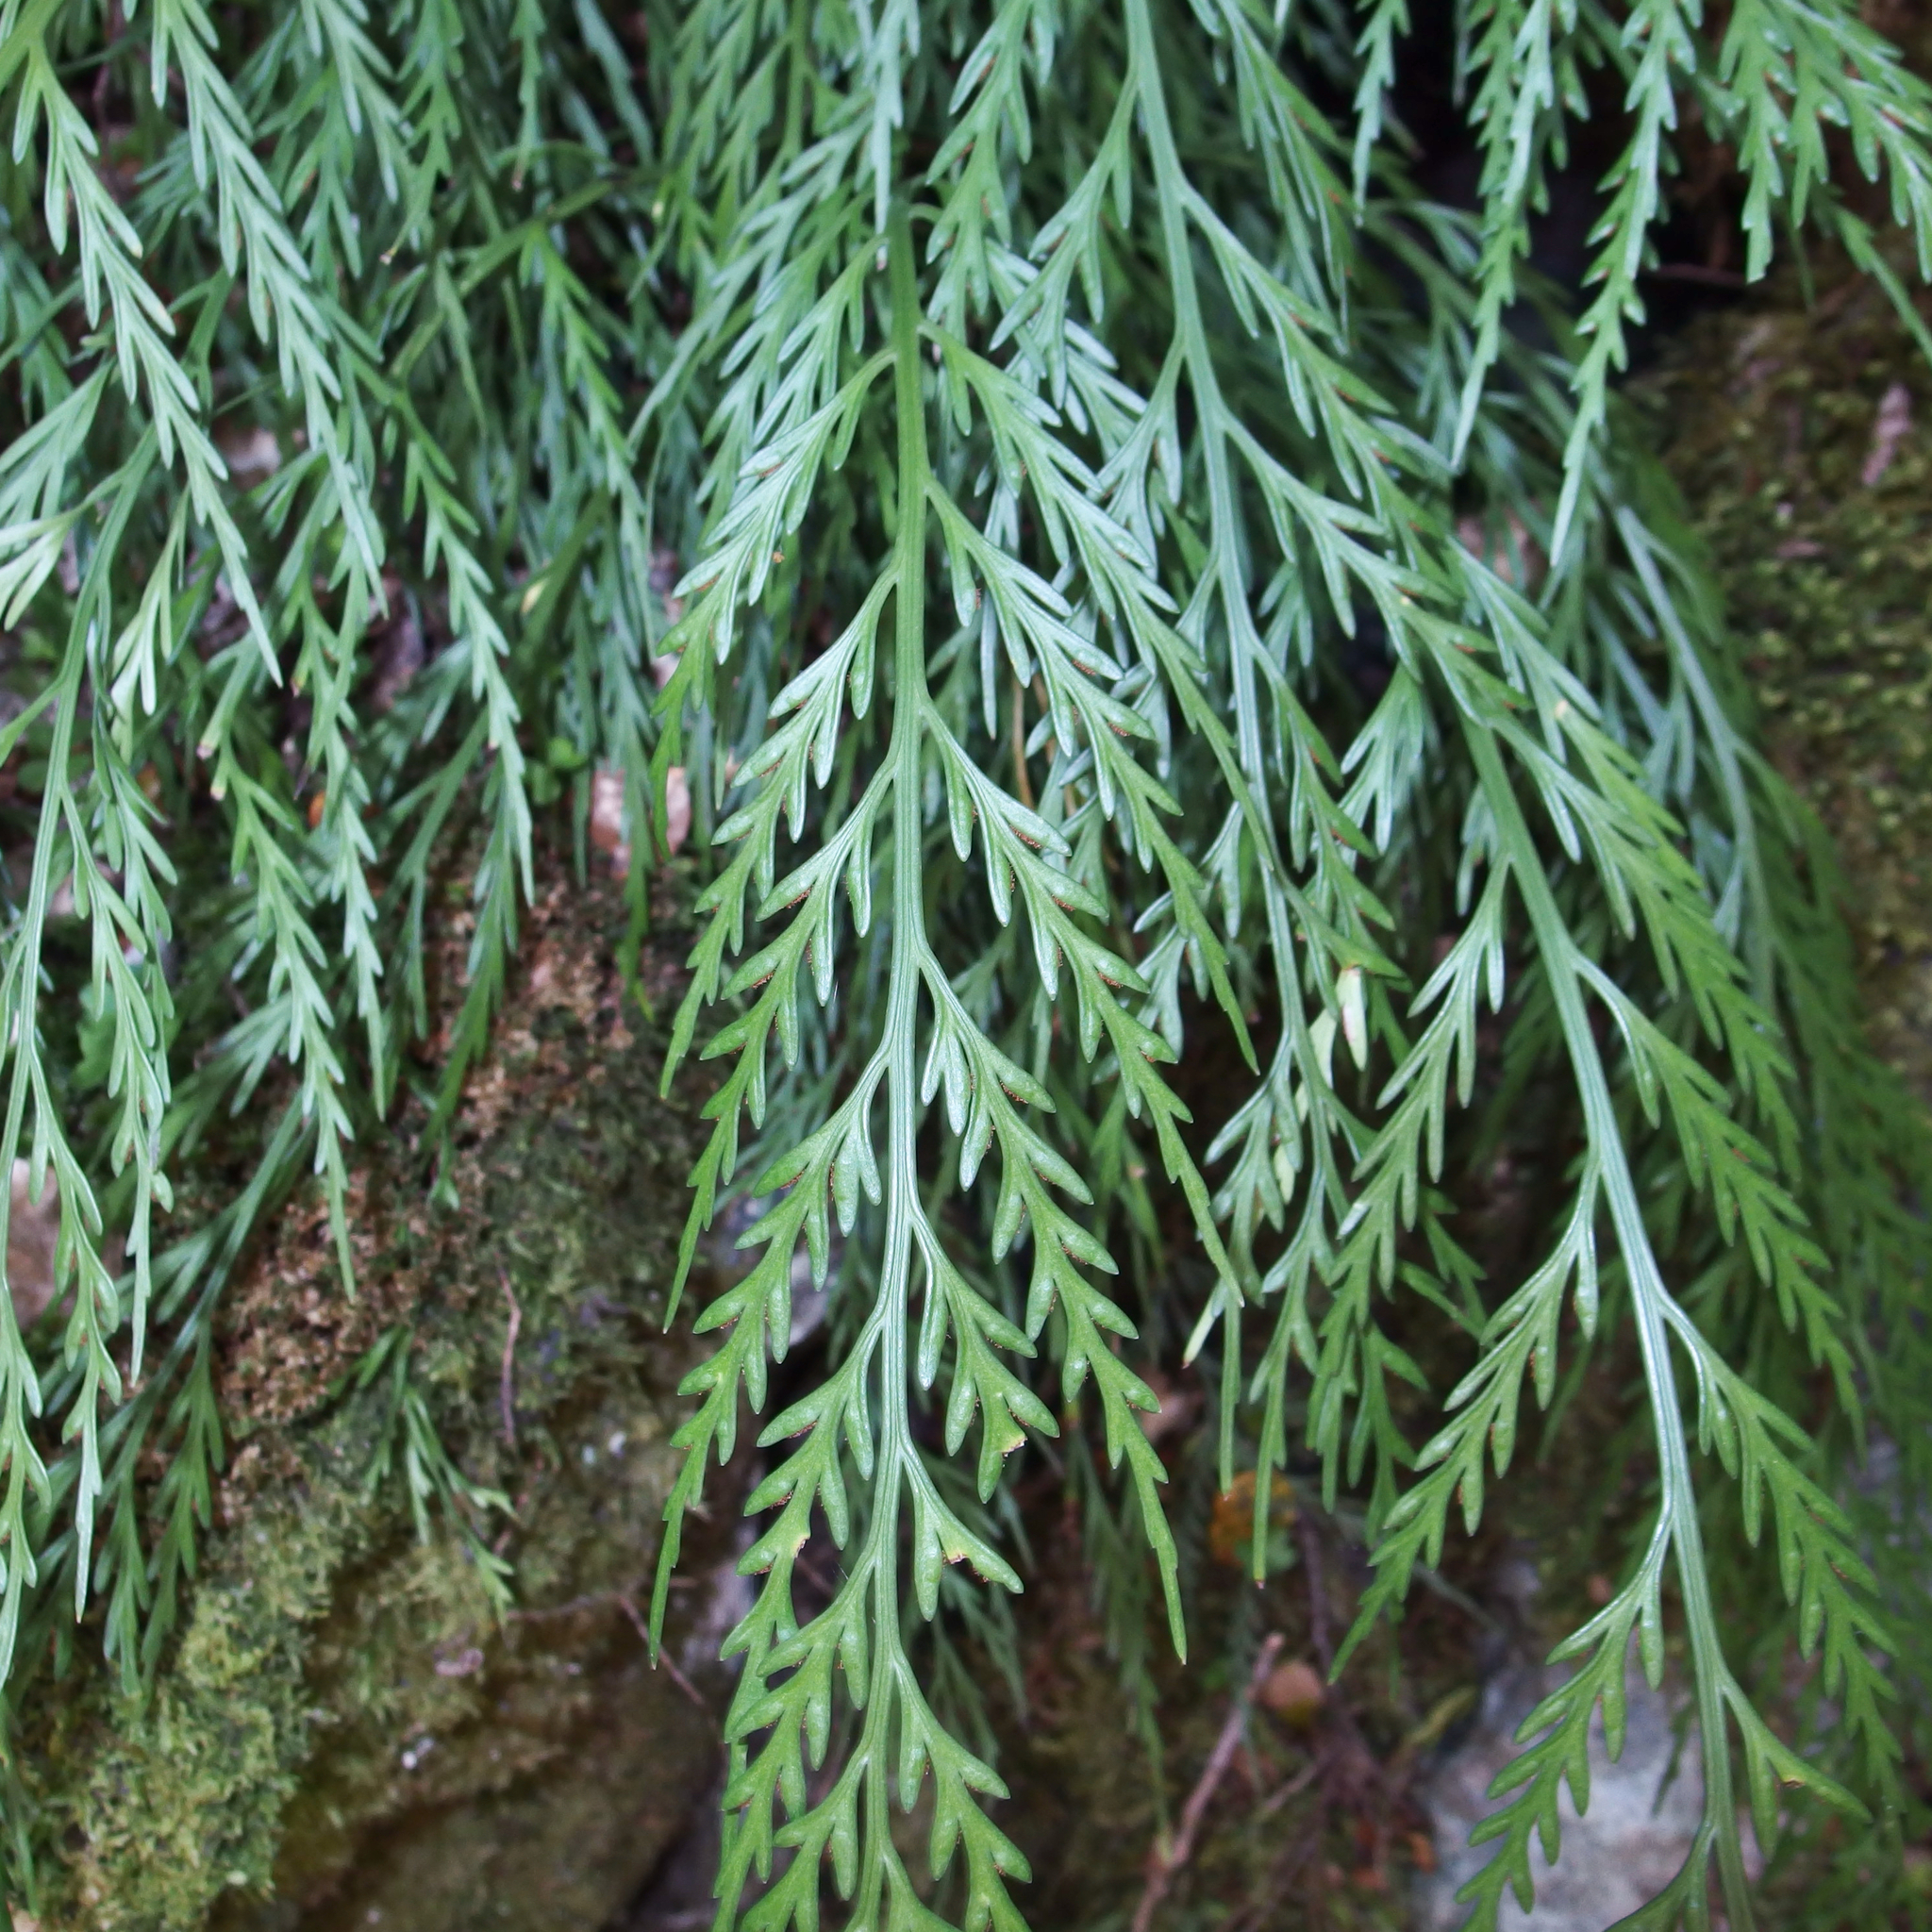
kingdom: Plantae
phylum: Tracheophyta
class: Polypodiopsida
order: Polypodiales
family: Aspleniaceae
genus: Asplenium
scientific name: Asplenium flaccidum
